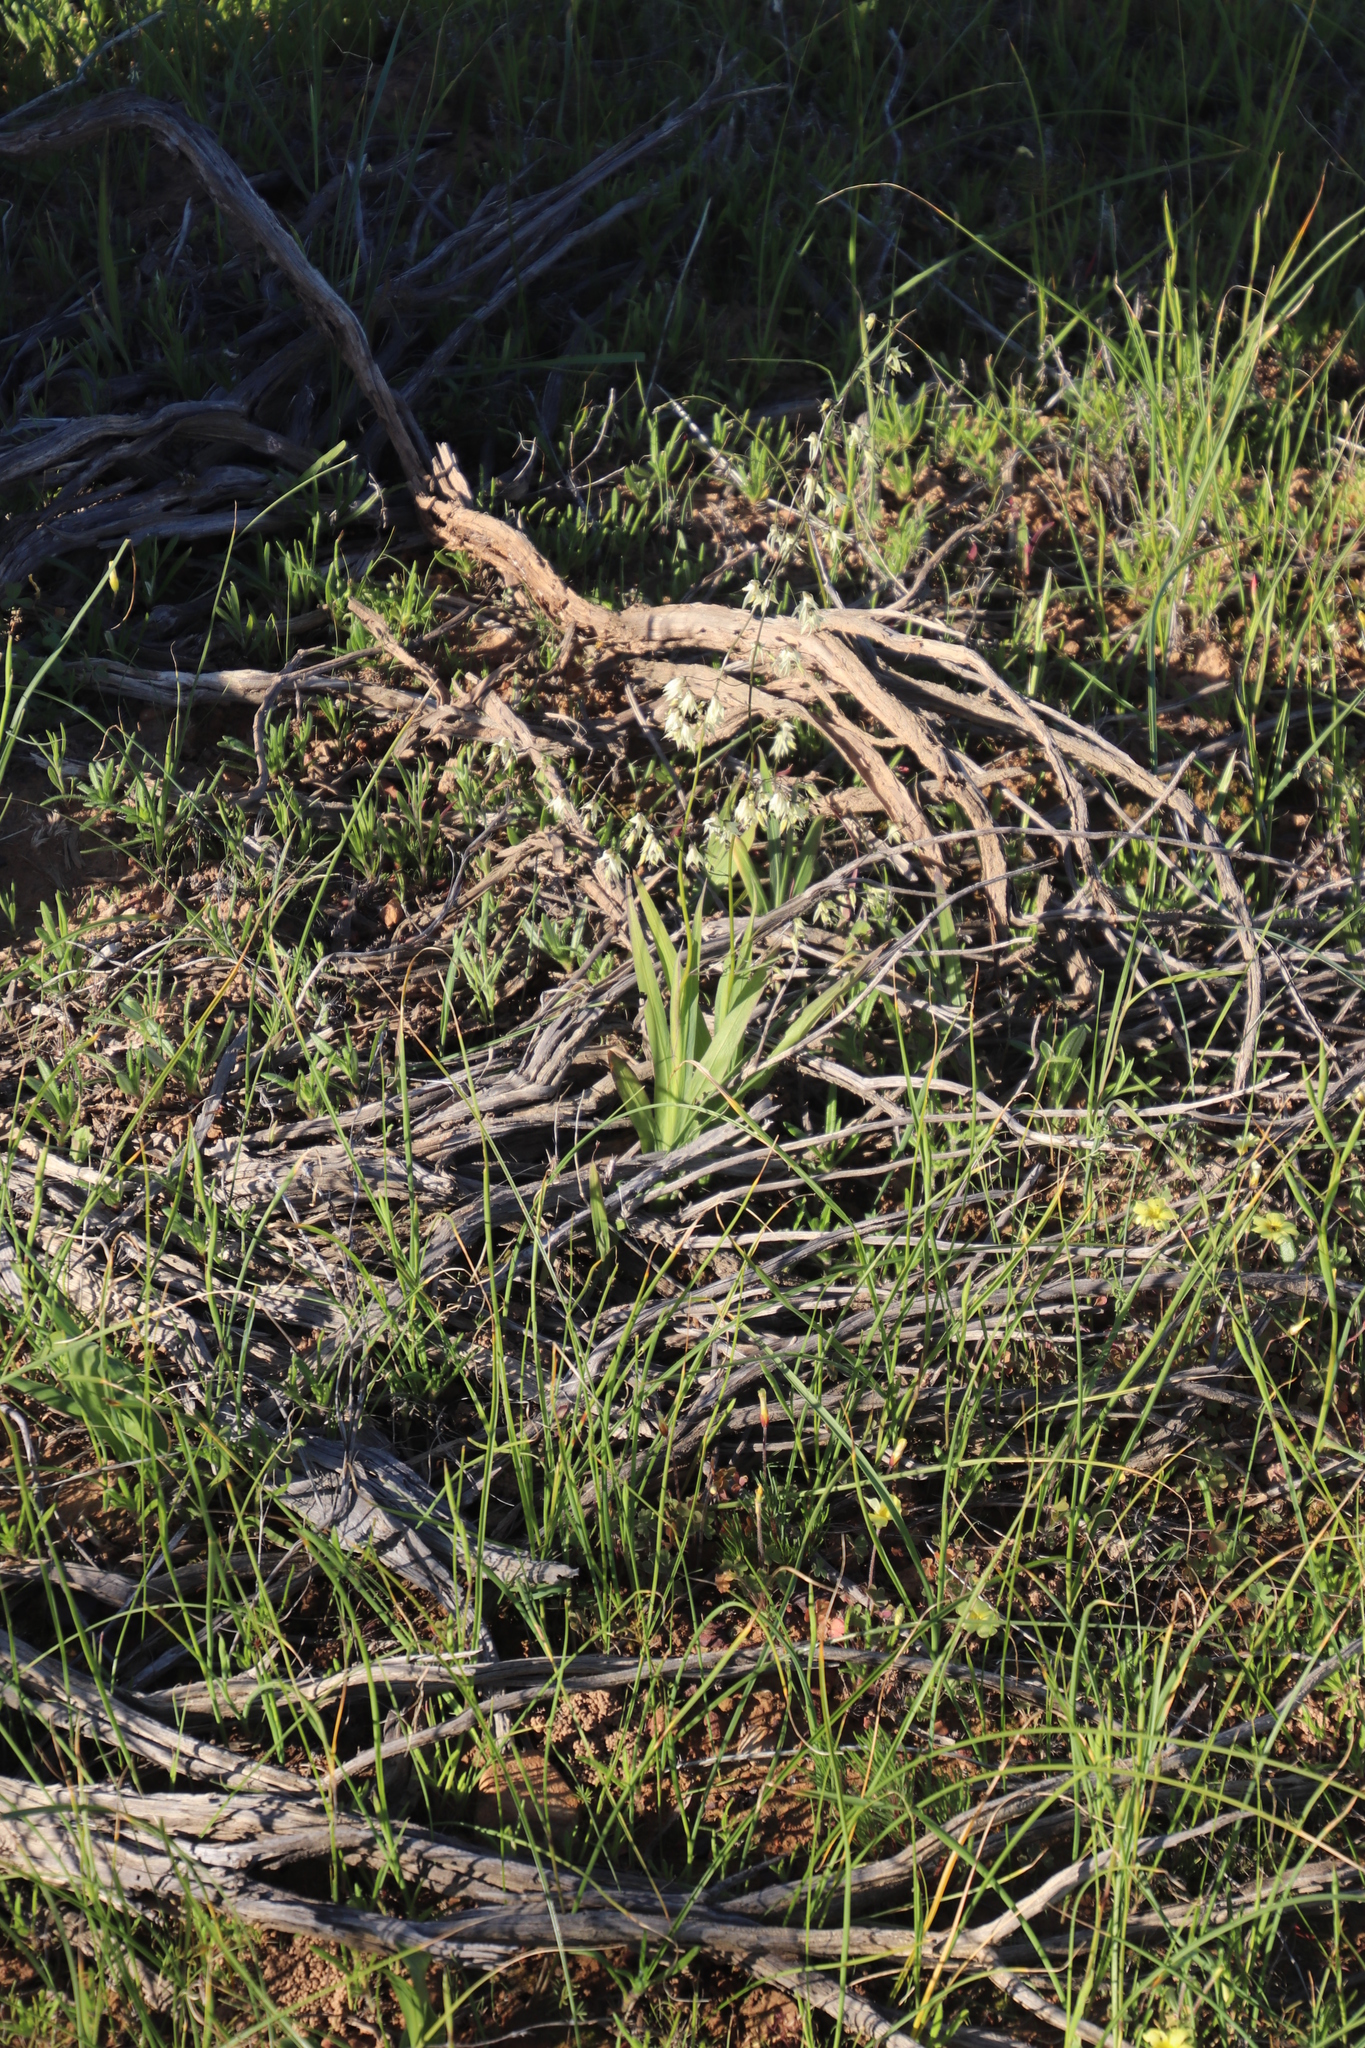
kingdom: Plantae
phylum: Tracheophyta
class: Liliopsida
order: Asparagales
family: Iridaceae
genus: Melasphaerula
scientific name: Melasphaerula graminea
